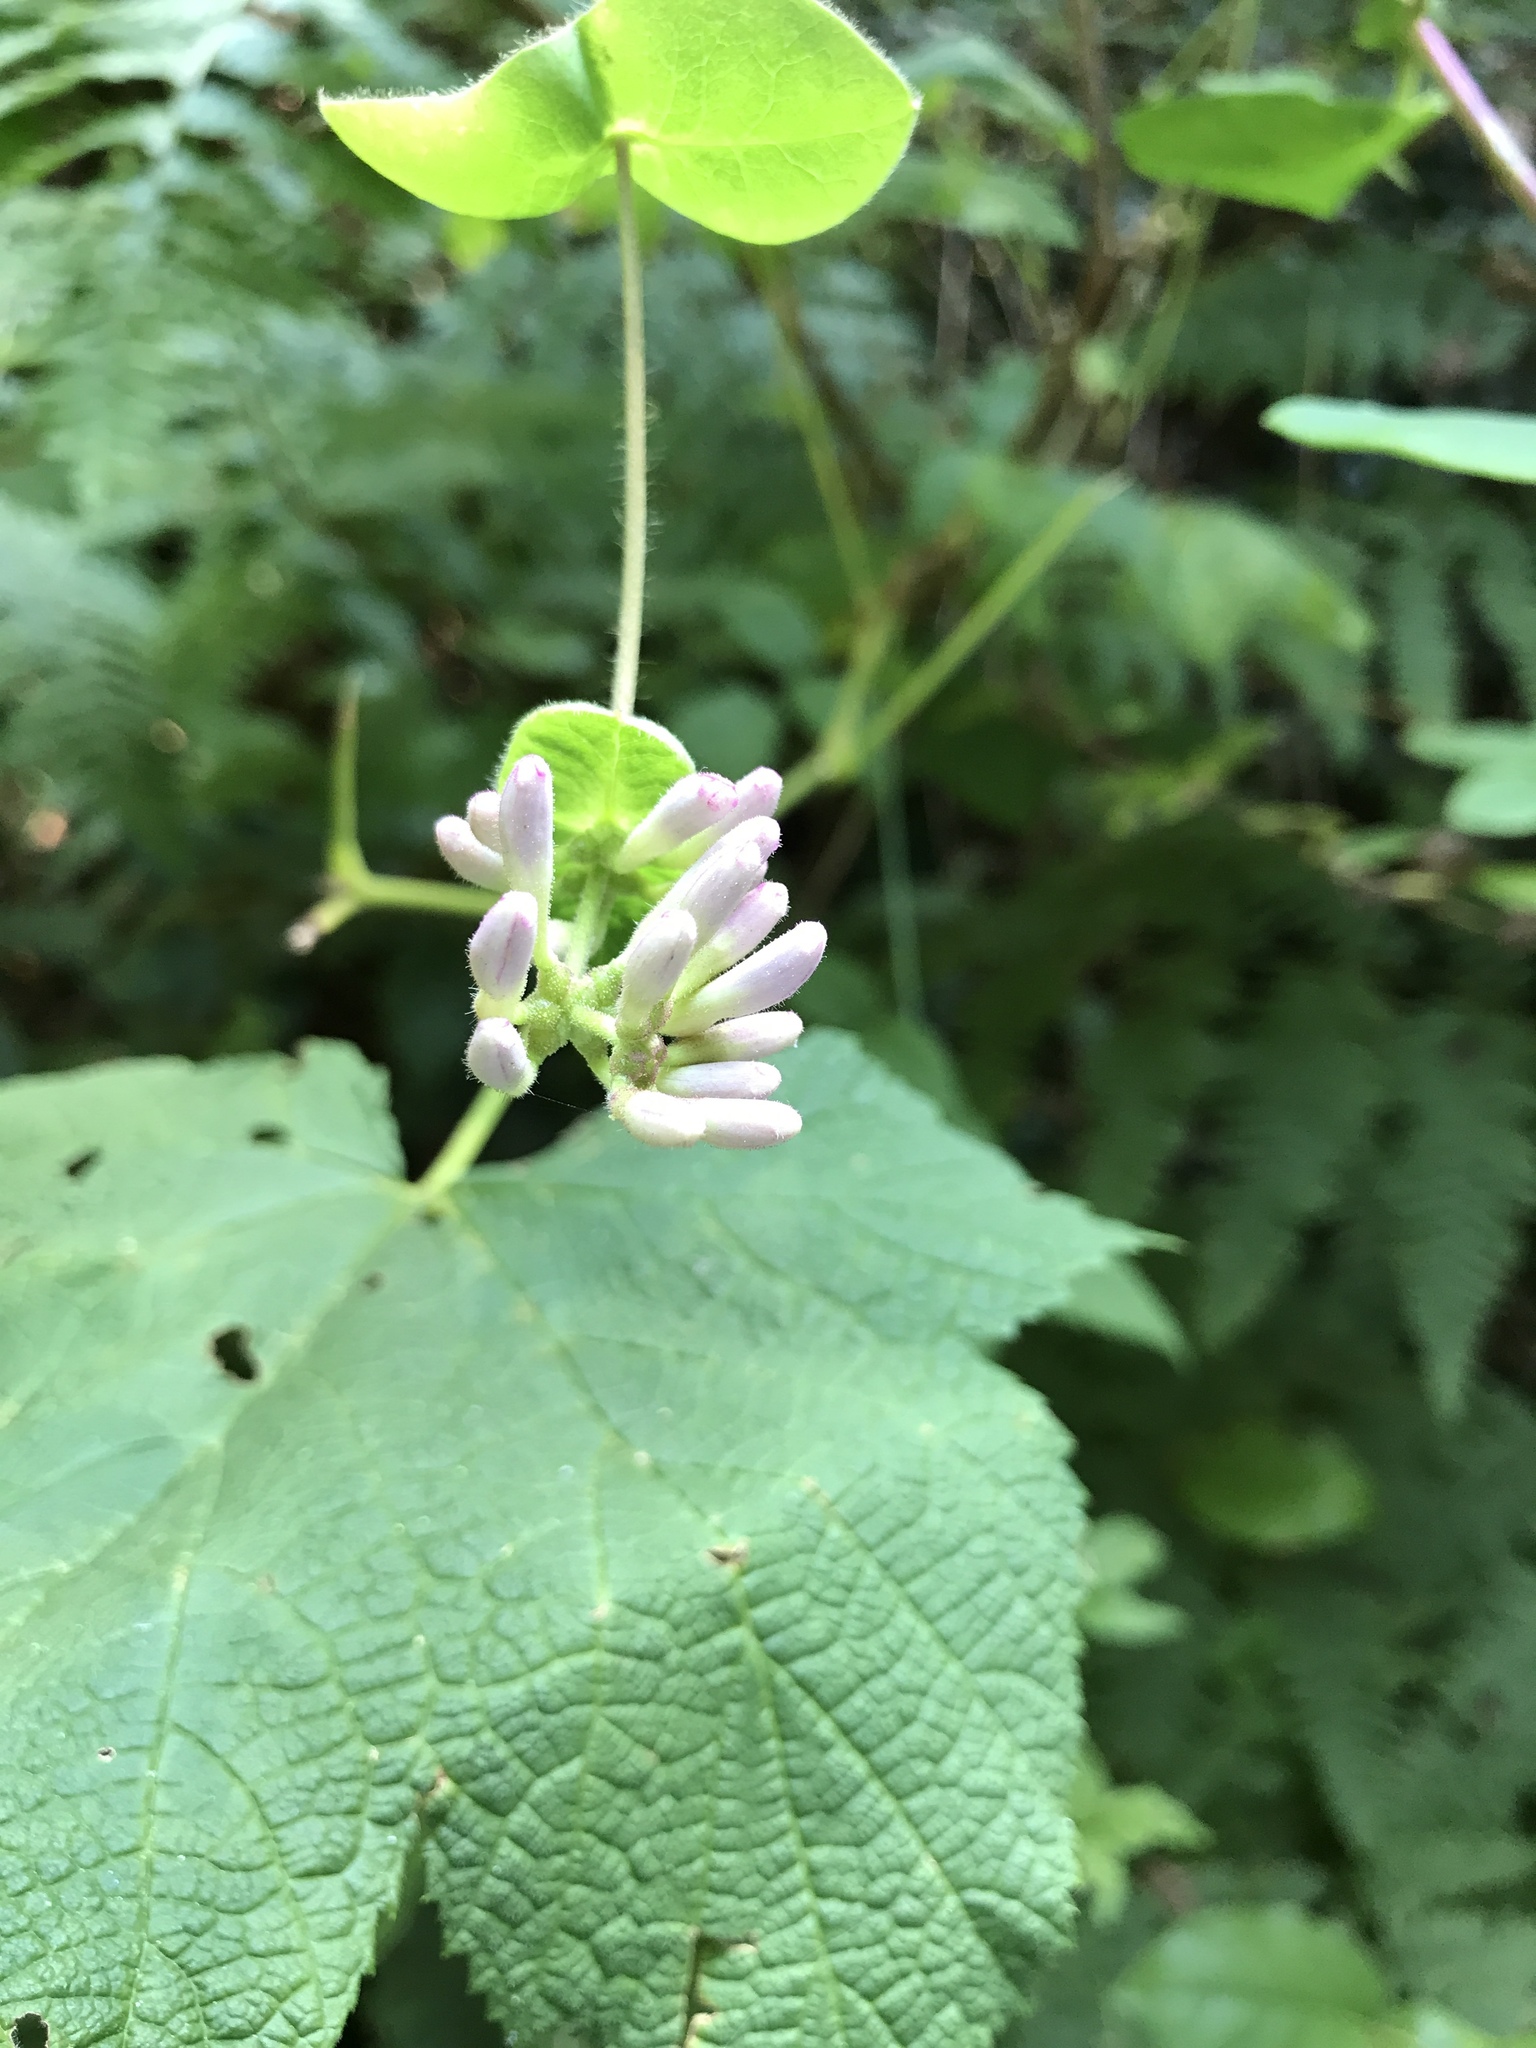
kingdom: Plantae
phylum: Tracheophyta
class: Magnoliopsida
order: Dipsacales
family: Caprifoliaceae
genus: Lonicera
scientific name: Lonicera hispidula
